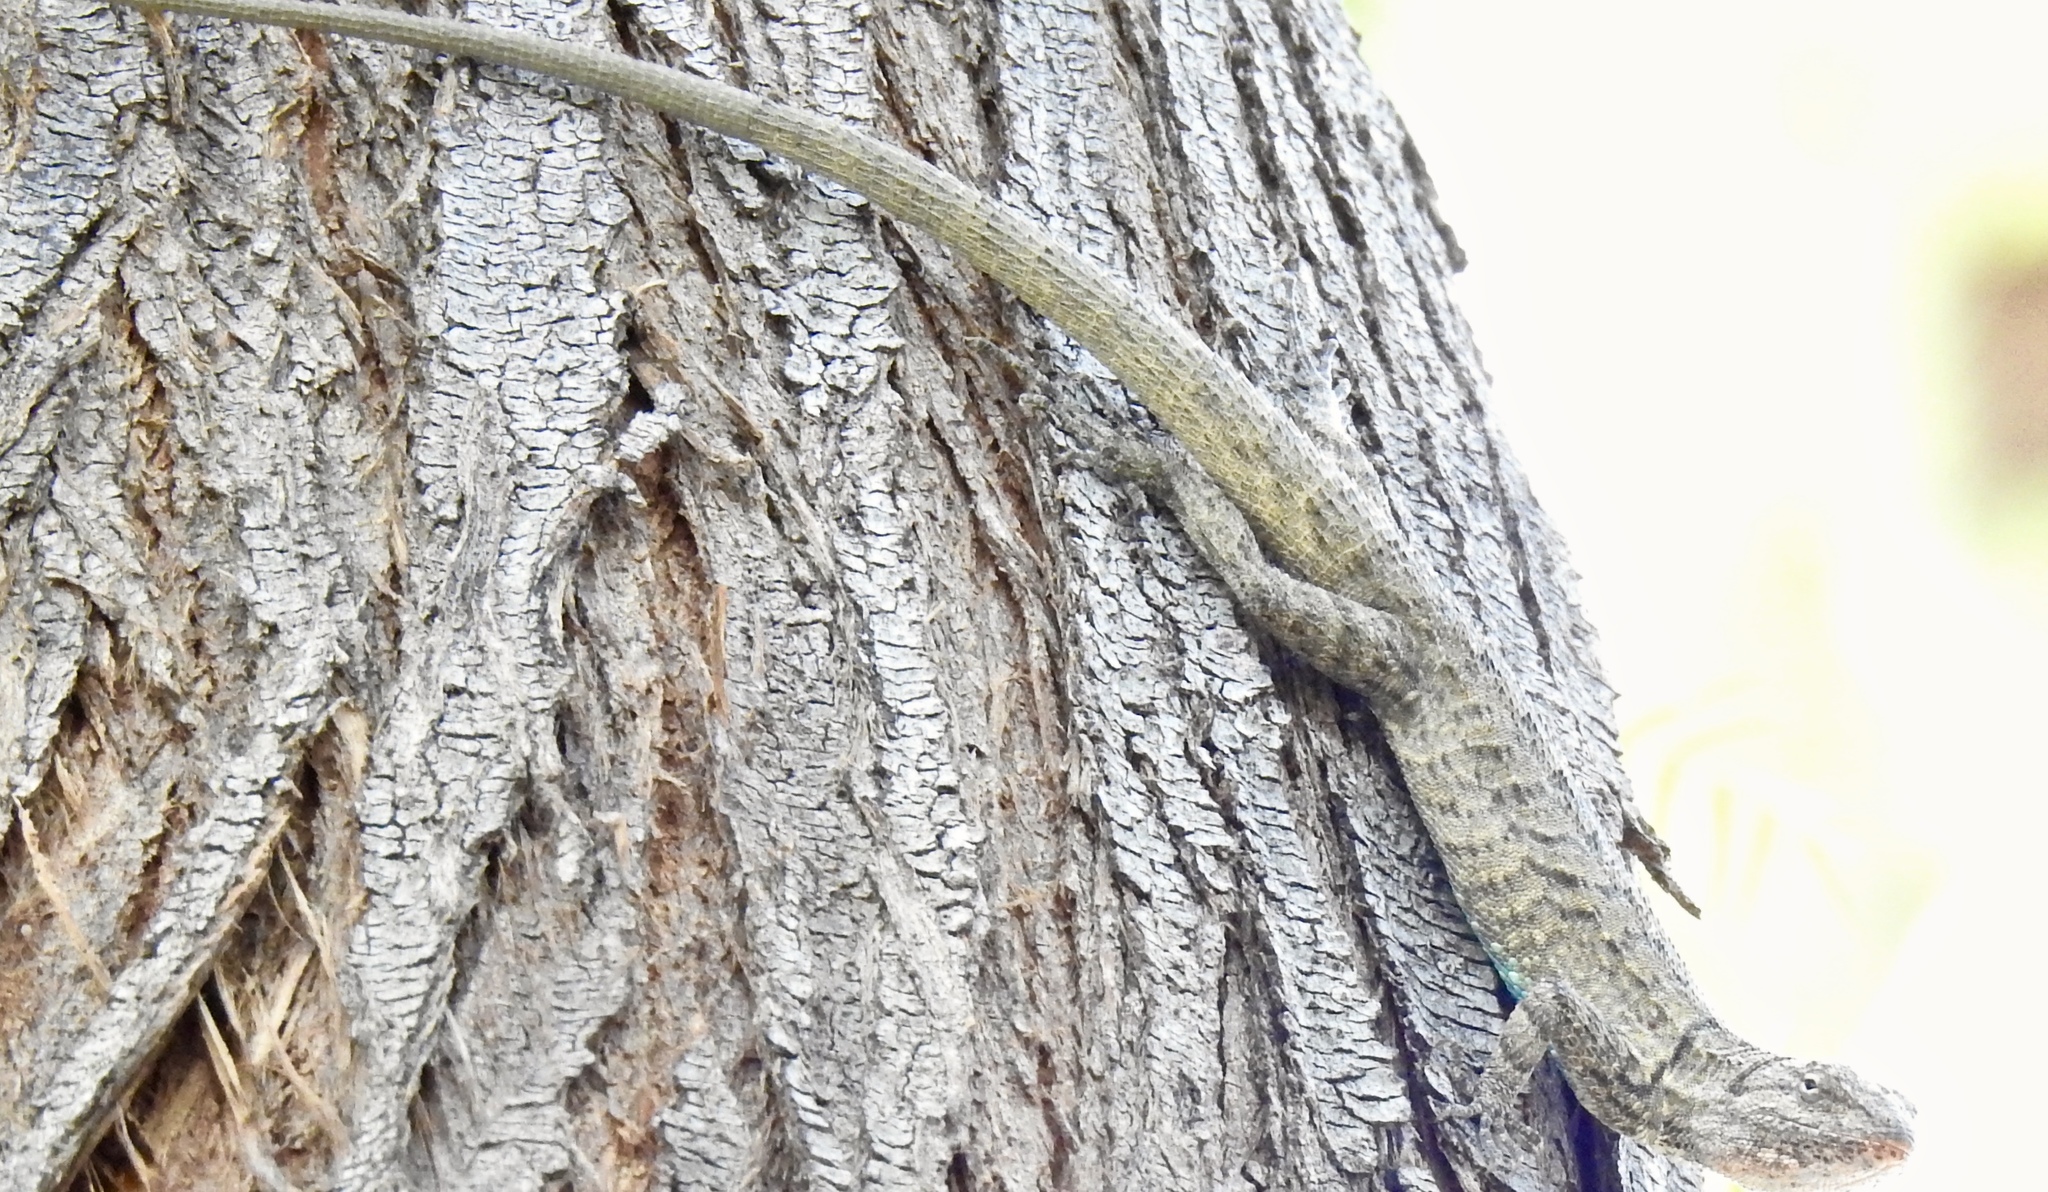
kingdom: Animalia
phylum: Chordata
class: Squamata
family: Phrynosomatidae
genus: Urosaurus
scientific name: Urosaurus graciosus
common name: Long-tailed brush lizard
